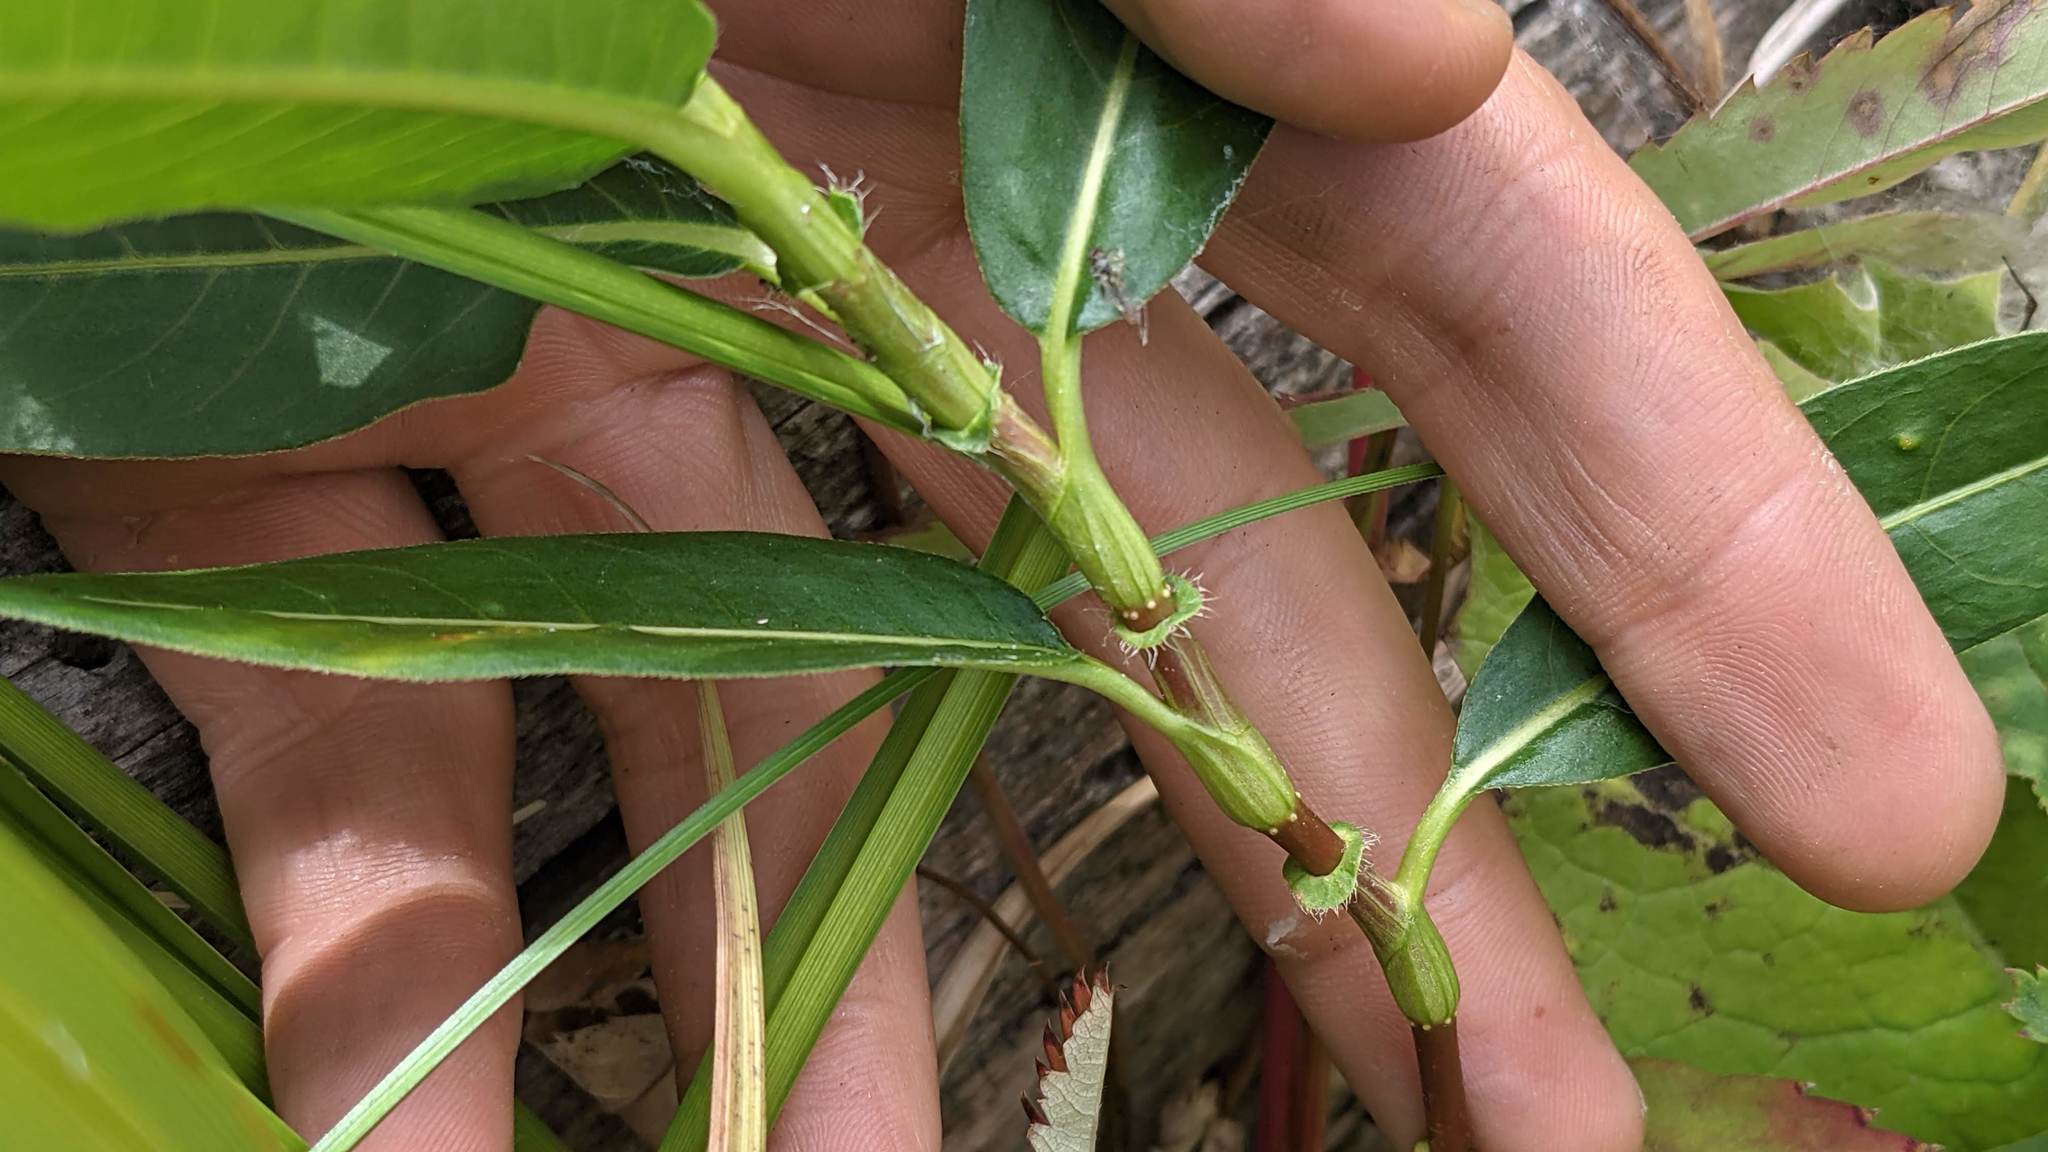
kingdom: Plantae
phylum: Tracheophyta
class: Magnoliopsida
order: Caryophyllales
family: Polygonaceae
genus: Persicaria
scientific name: Persicaria amphibia
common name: Amphibious bistort
